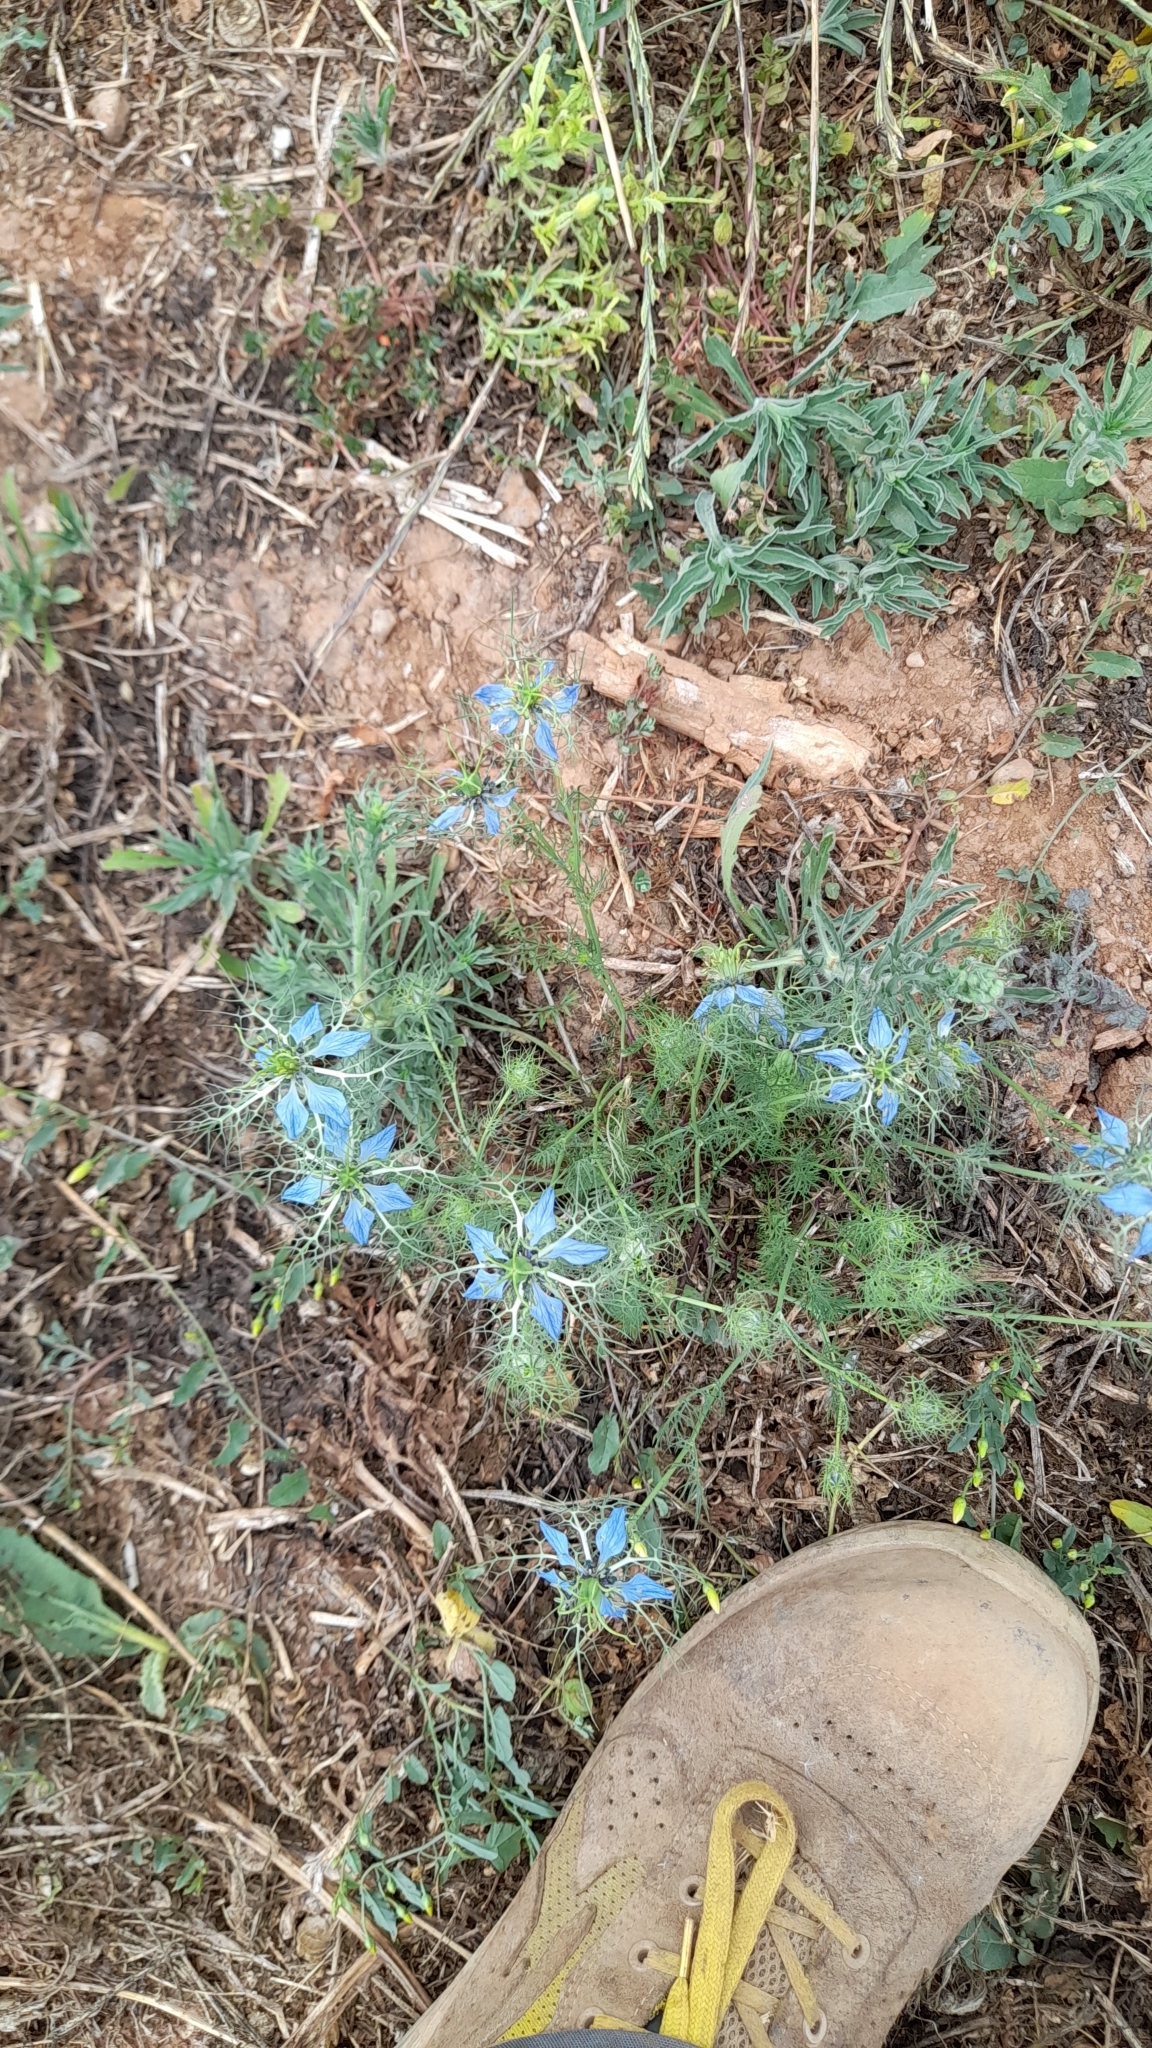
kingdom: Plantae
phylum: Tracheophyta
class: Magnoliopsida
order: Ranunculales
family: Ranunculaceae
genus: Nigella
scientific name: Nigella damascena
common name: Love-in-a-mist
